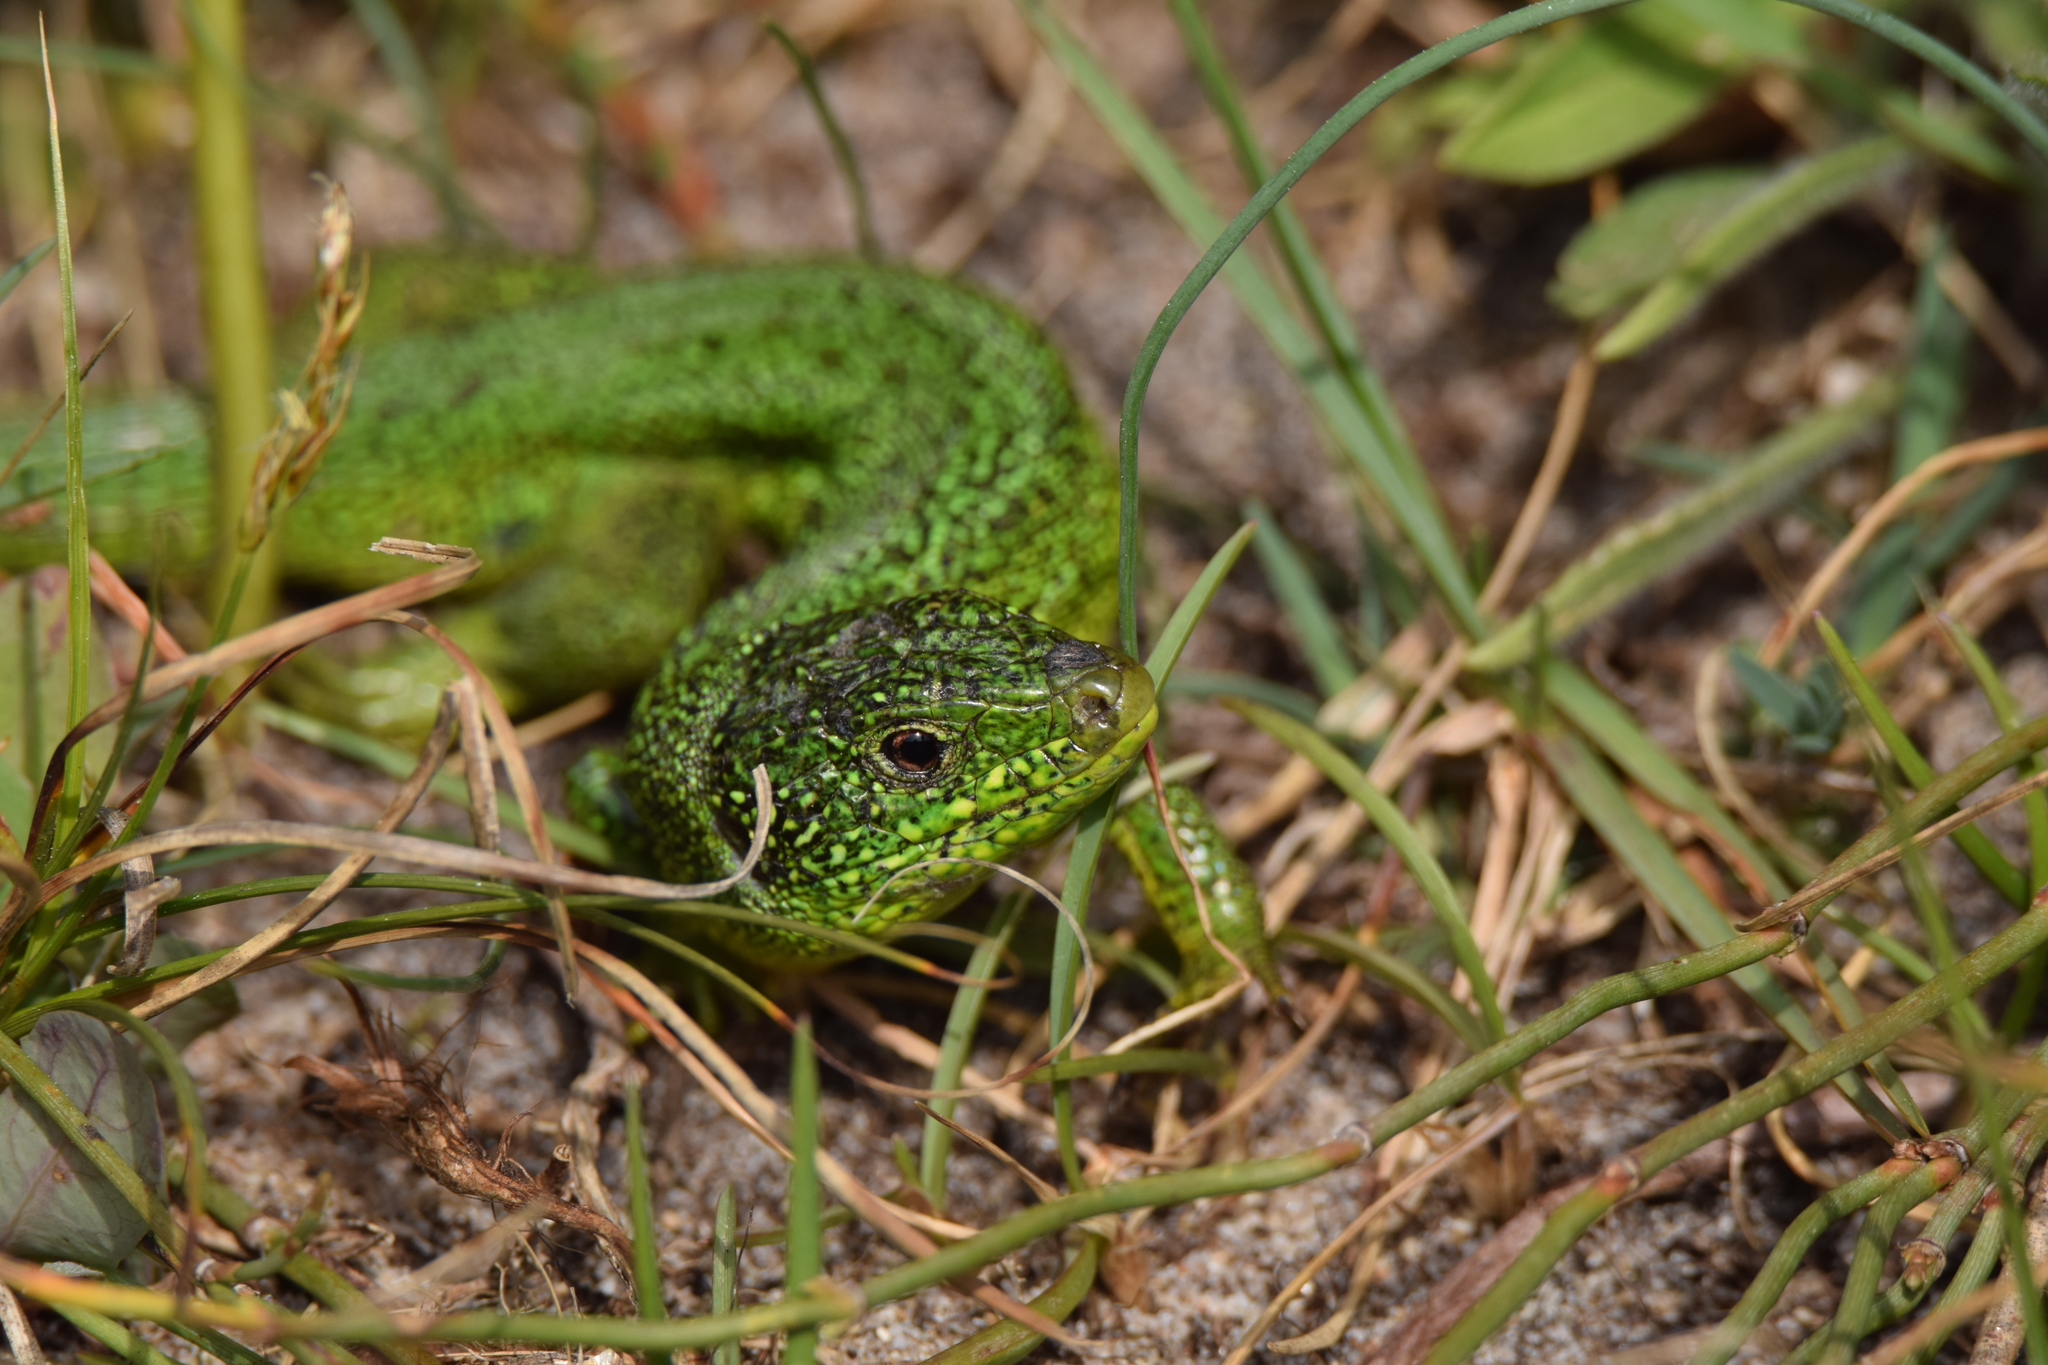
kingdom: Animalia
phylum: Chordata
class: Squamata
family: Lacertidae
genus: Lacerta
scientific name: Lacerta bilineata
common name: Western green lizard
